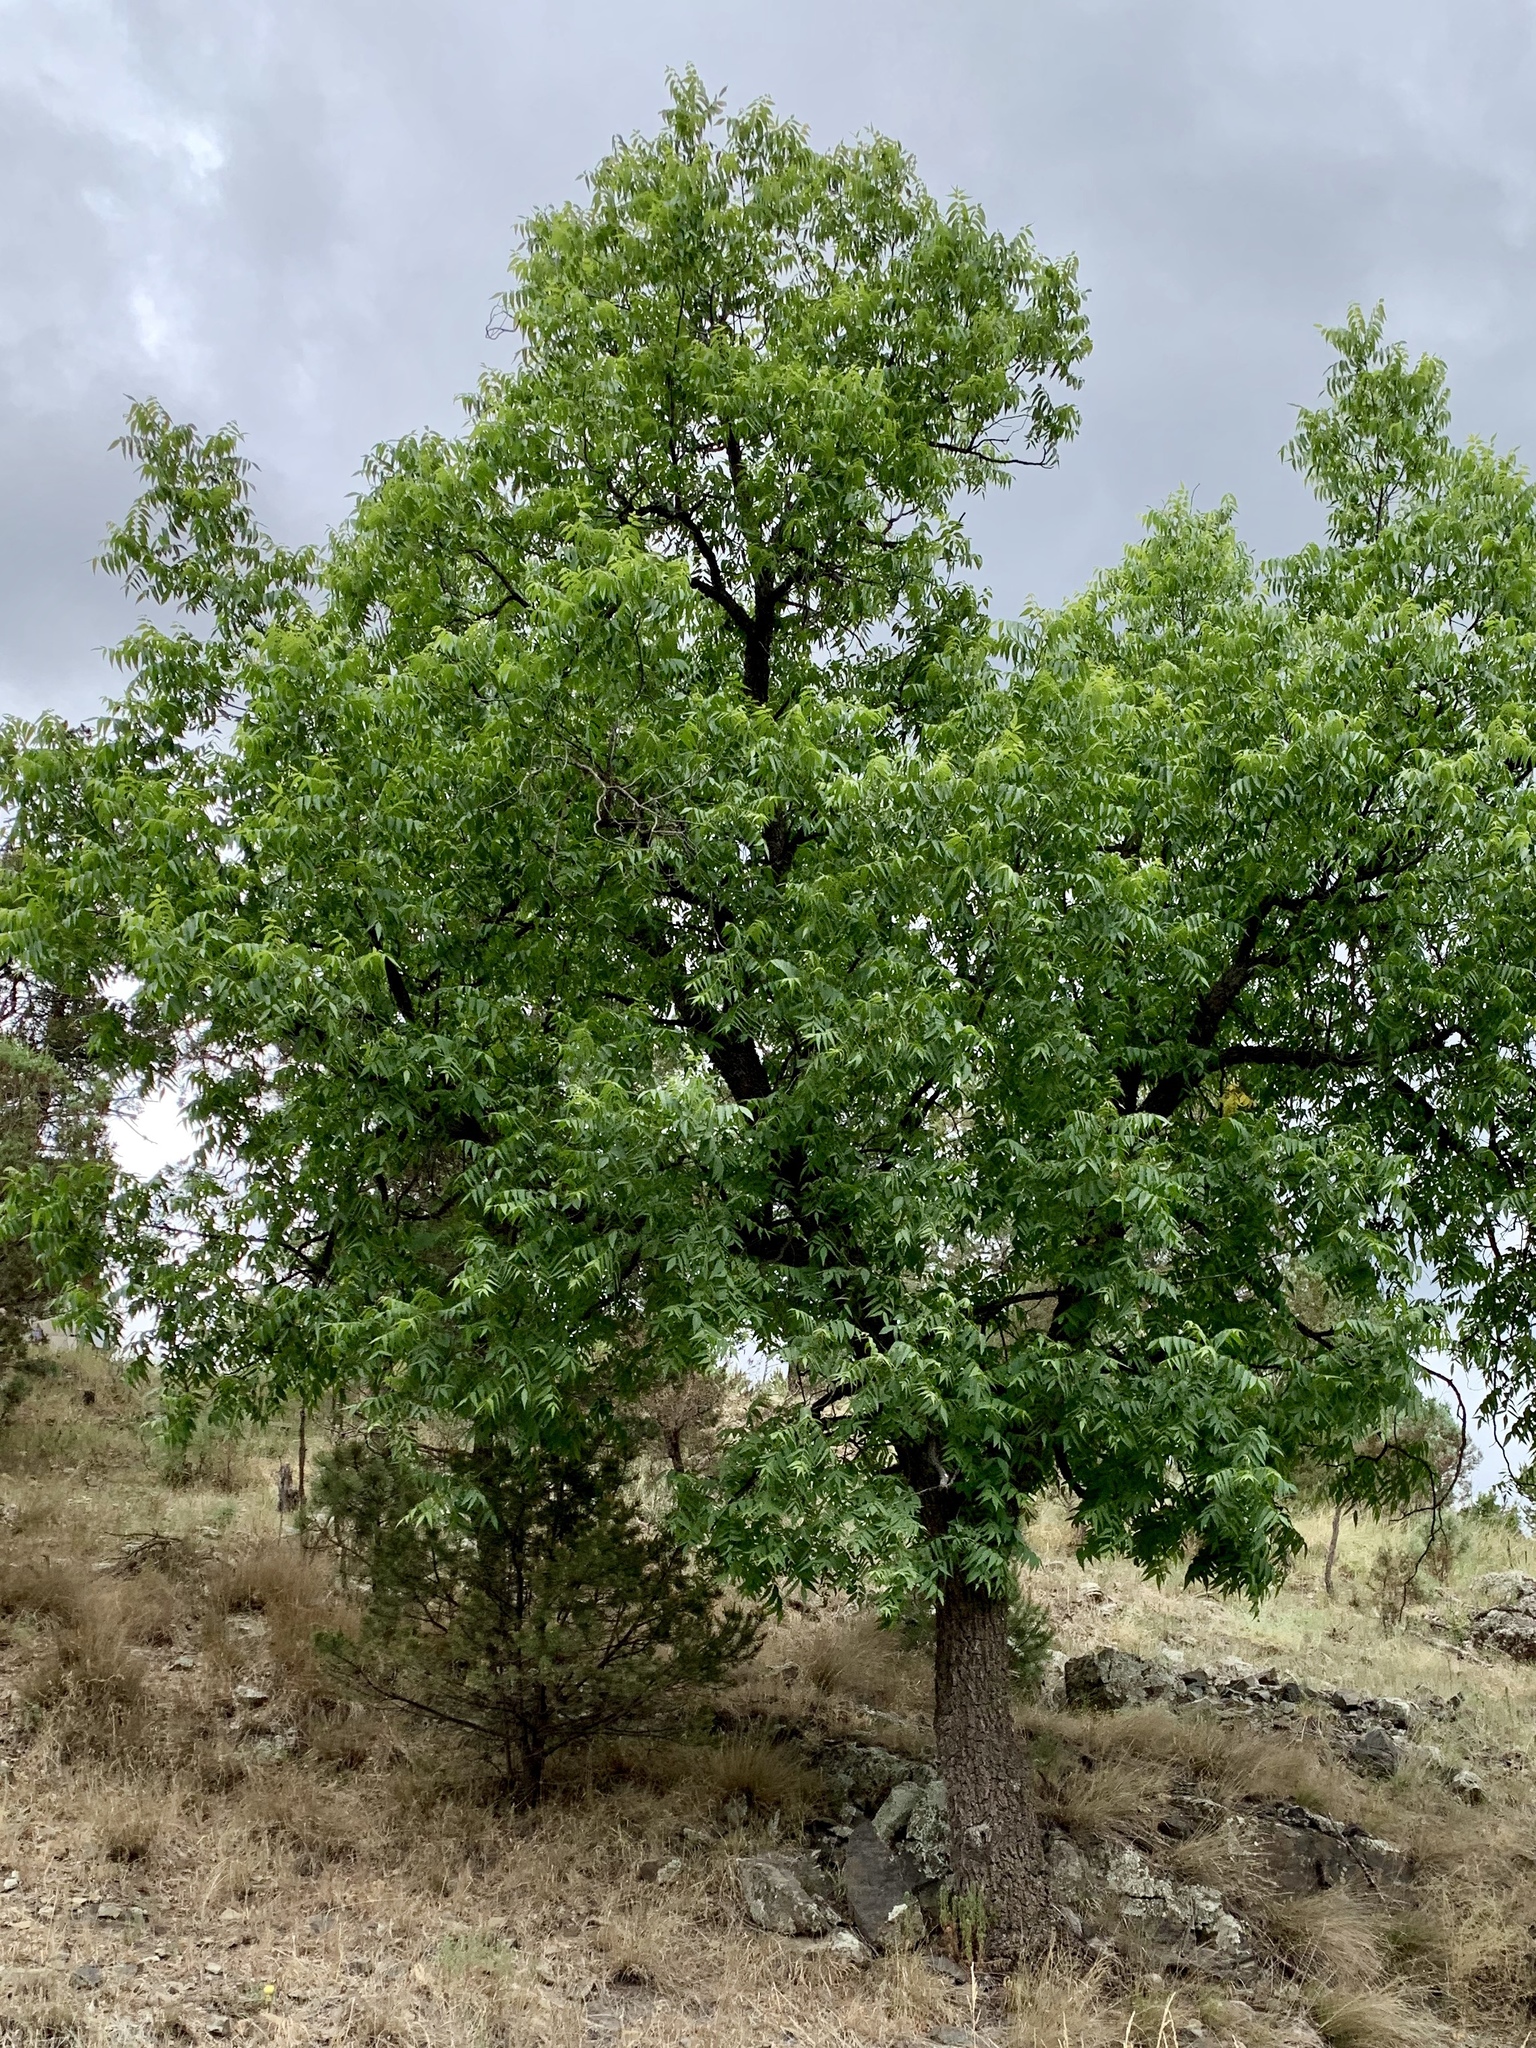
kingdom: Plantae
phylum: Tracheophyta
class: Magnoliopsida
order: Fagales
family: Juglandaceae
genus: Juglans
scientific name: Juglans major
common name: Arizona walnut
